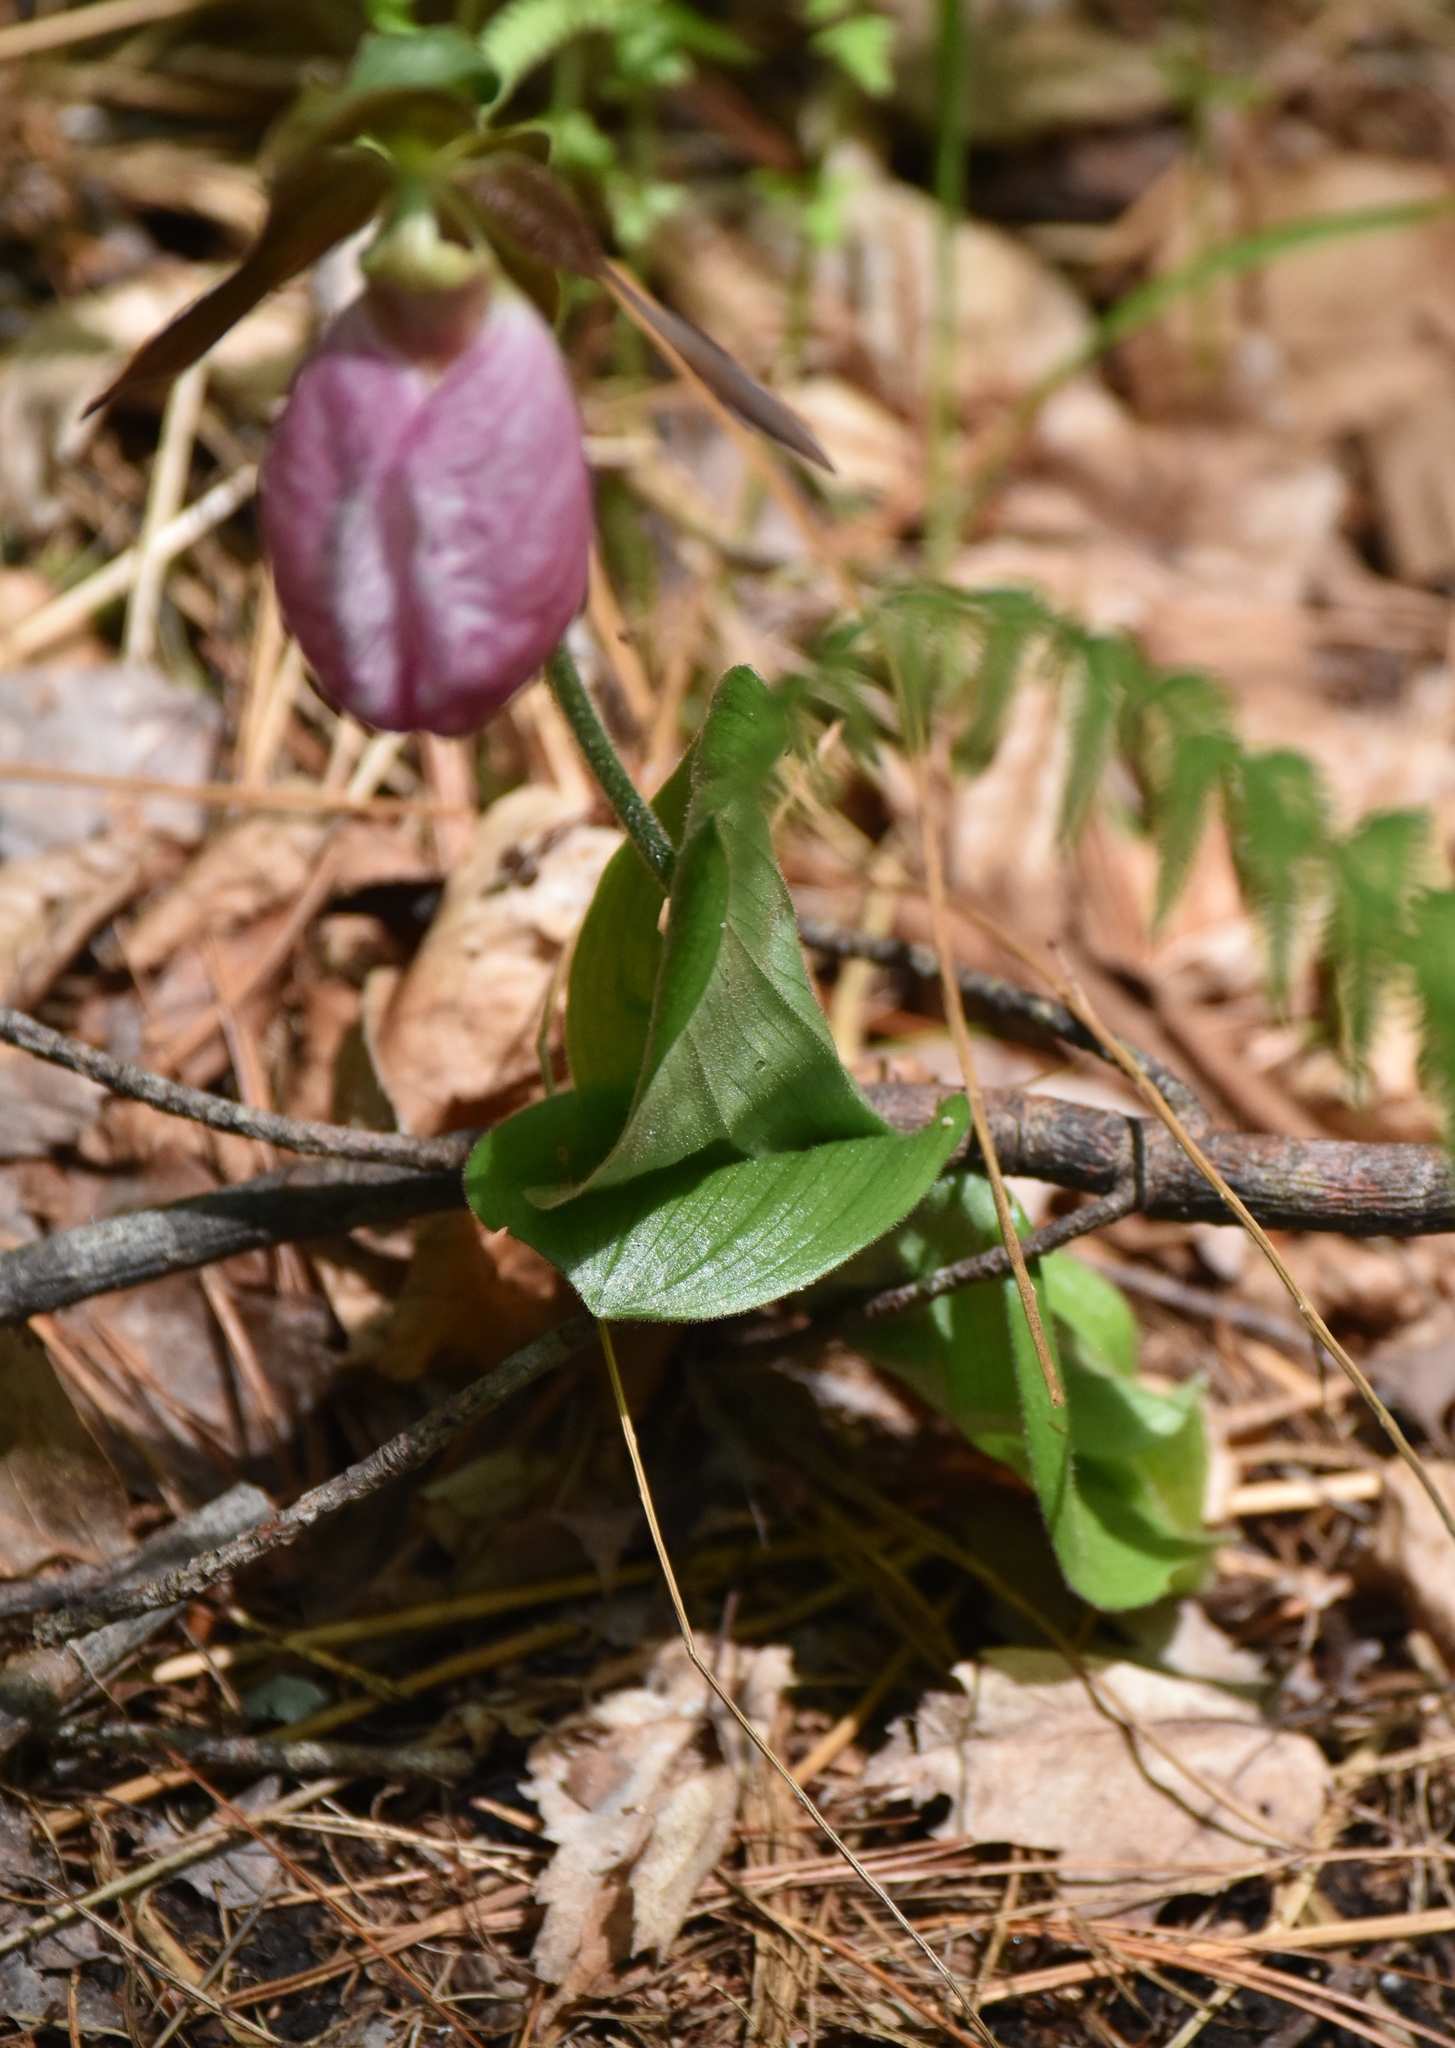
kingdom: Plantae
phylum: Tracheophyta
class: Liliopsida
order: Asparagales
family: Orchidaceae
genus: Cypripedium
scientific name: Cypripedium acaule
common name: Pink lady's-slipper
